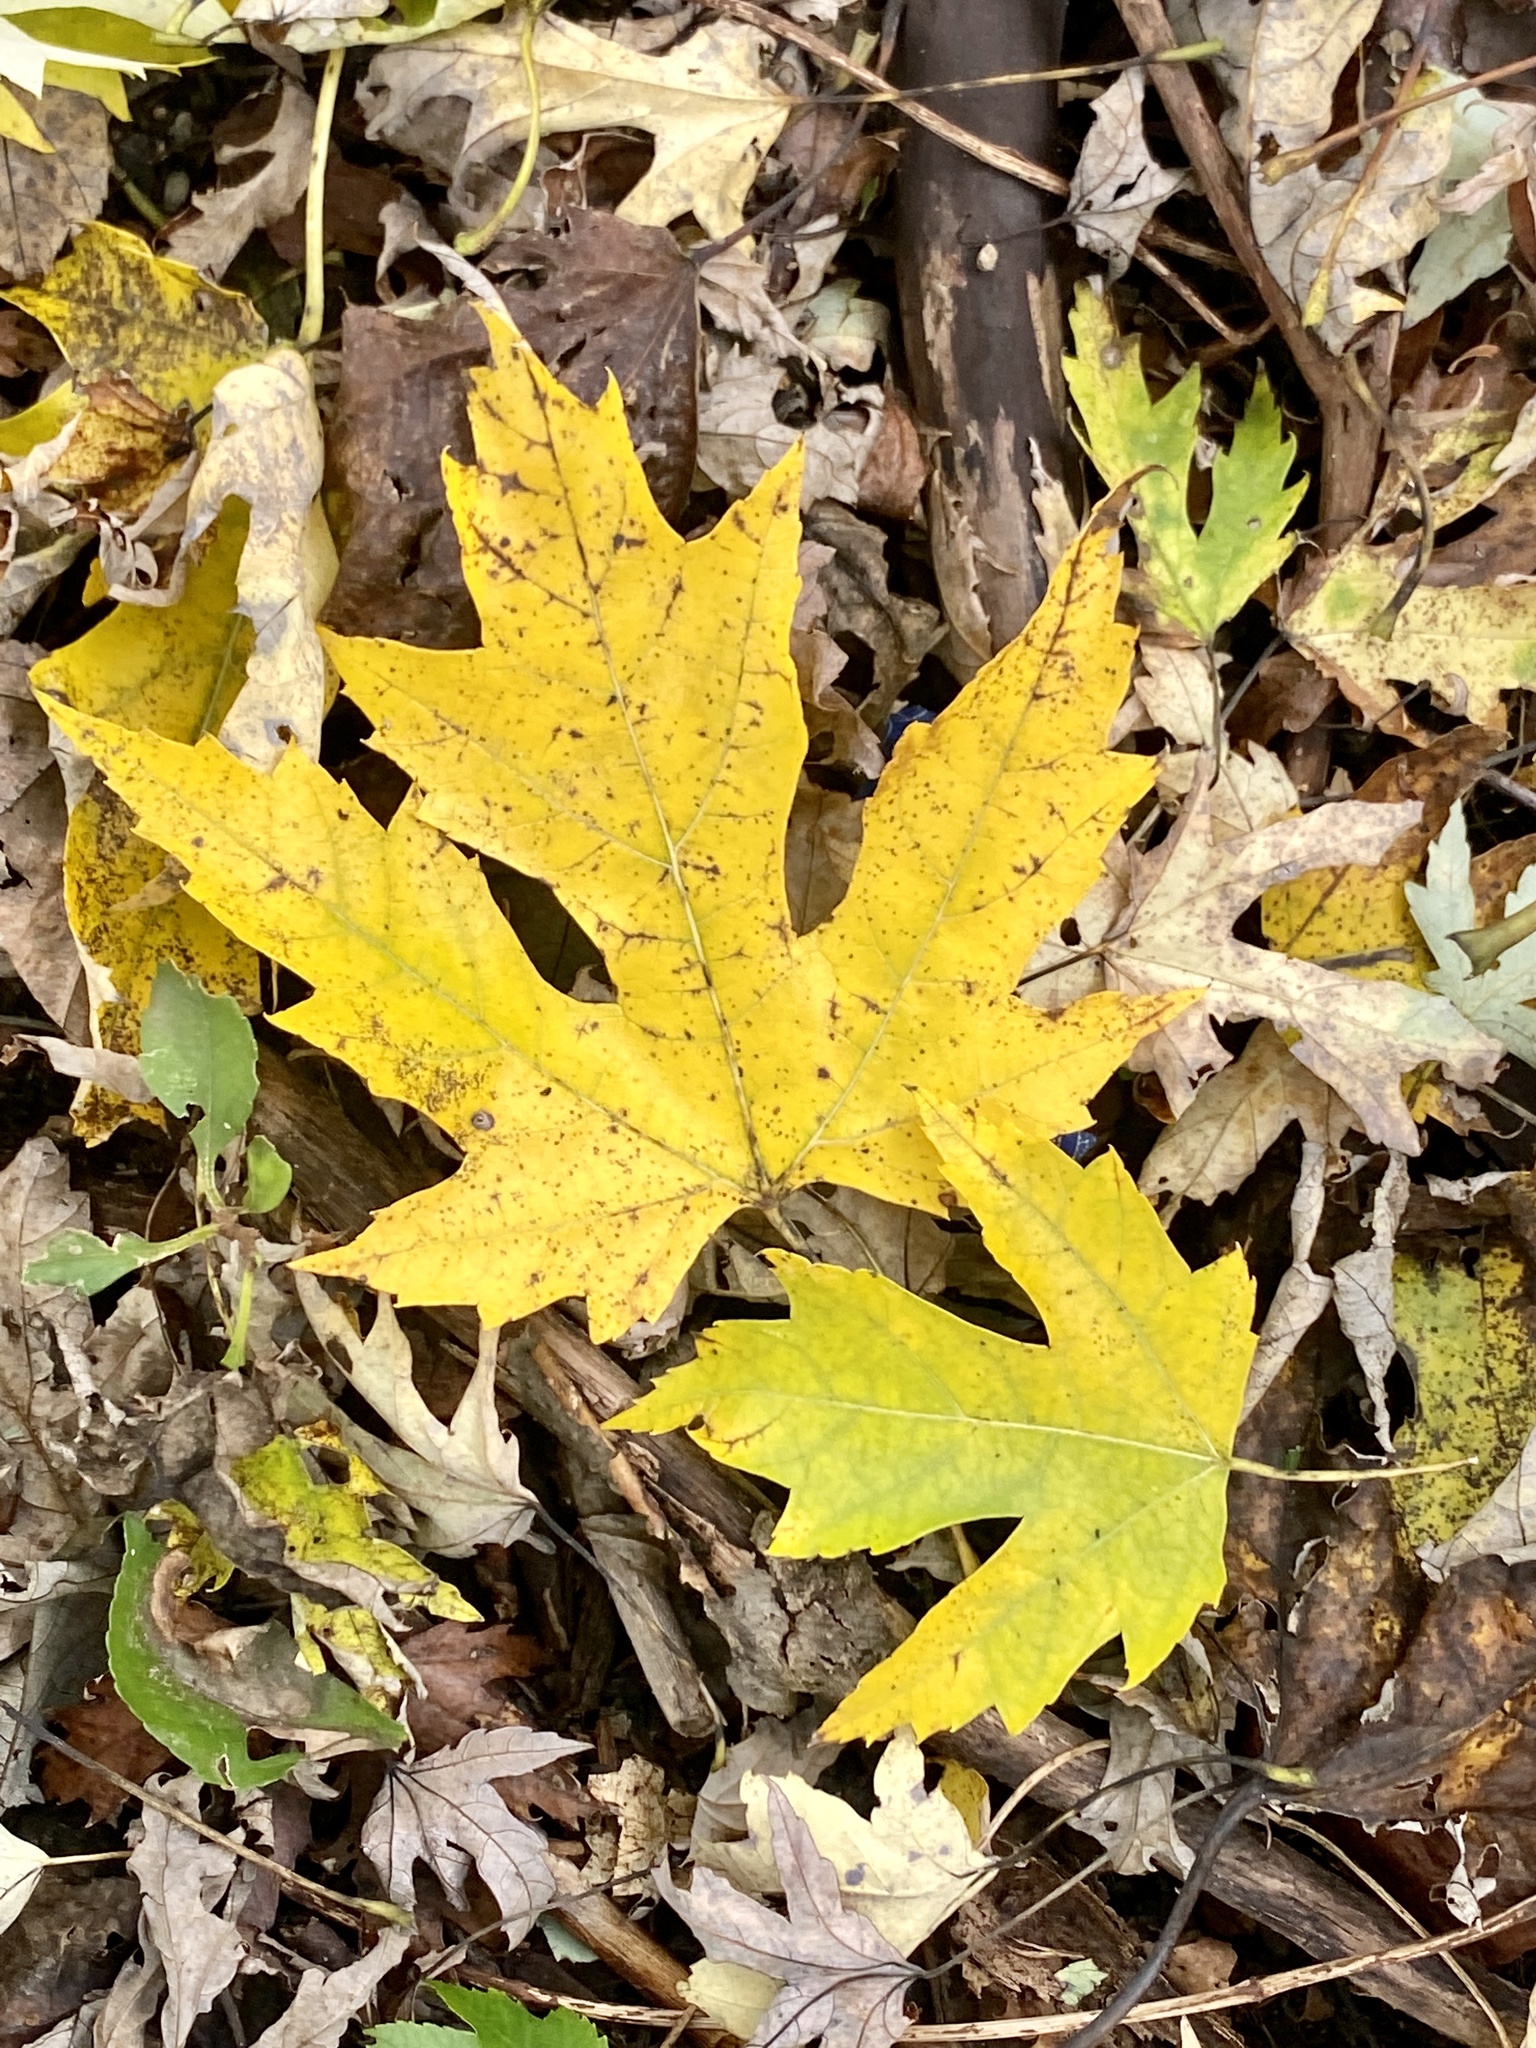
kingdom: Plantae
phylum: Tracheophyta
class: Magnoliopsida
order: Sapindales
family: Sapindaceae
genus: Acer
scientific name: Acer saccharinum
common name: Silver maple
